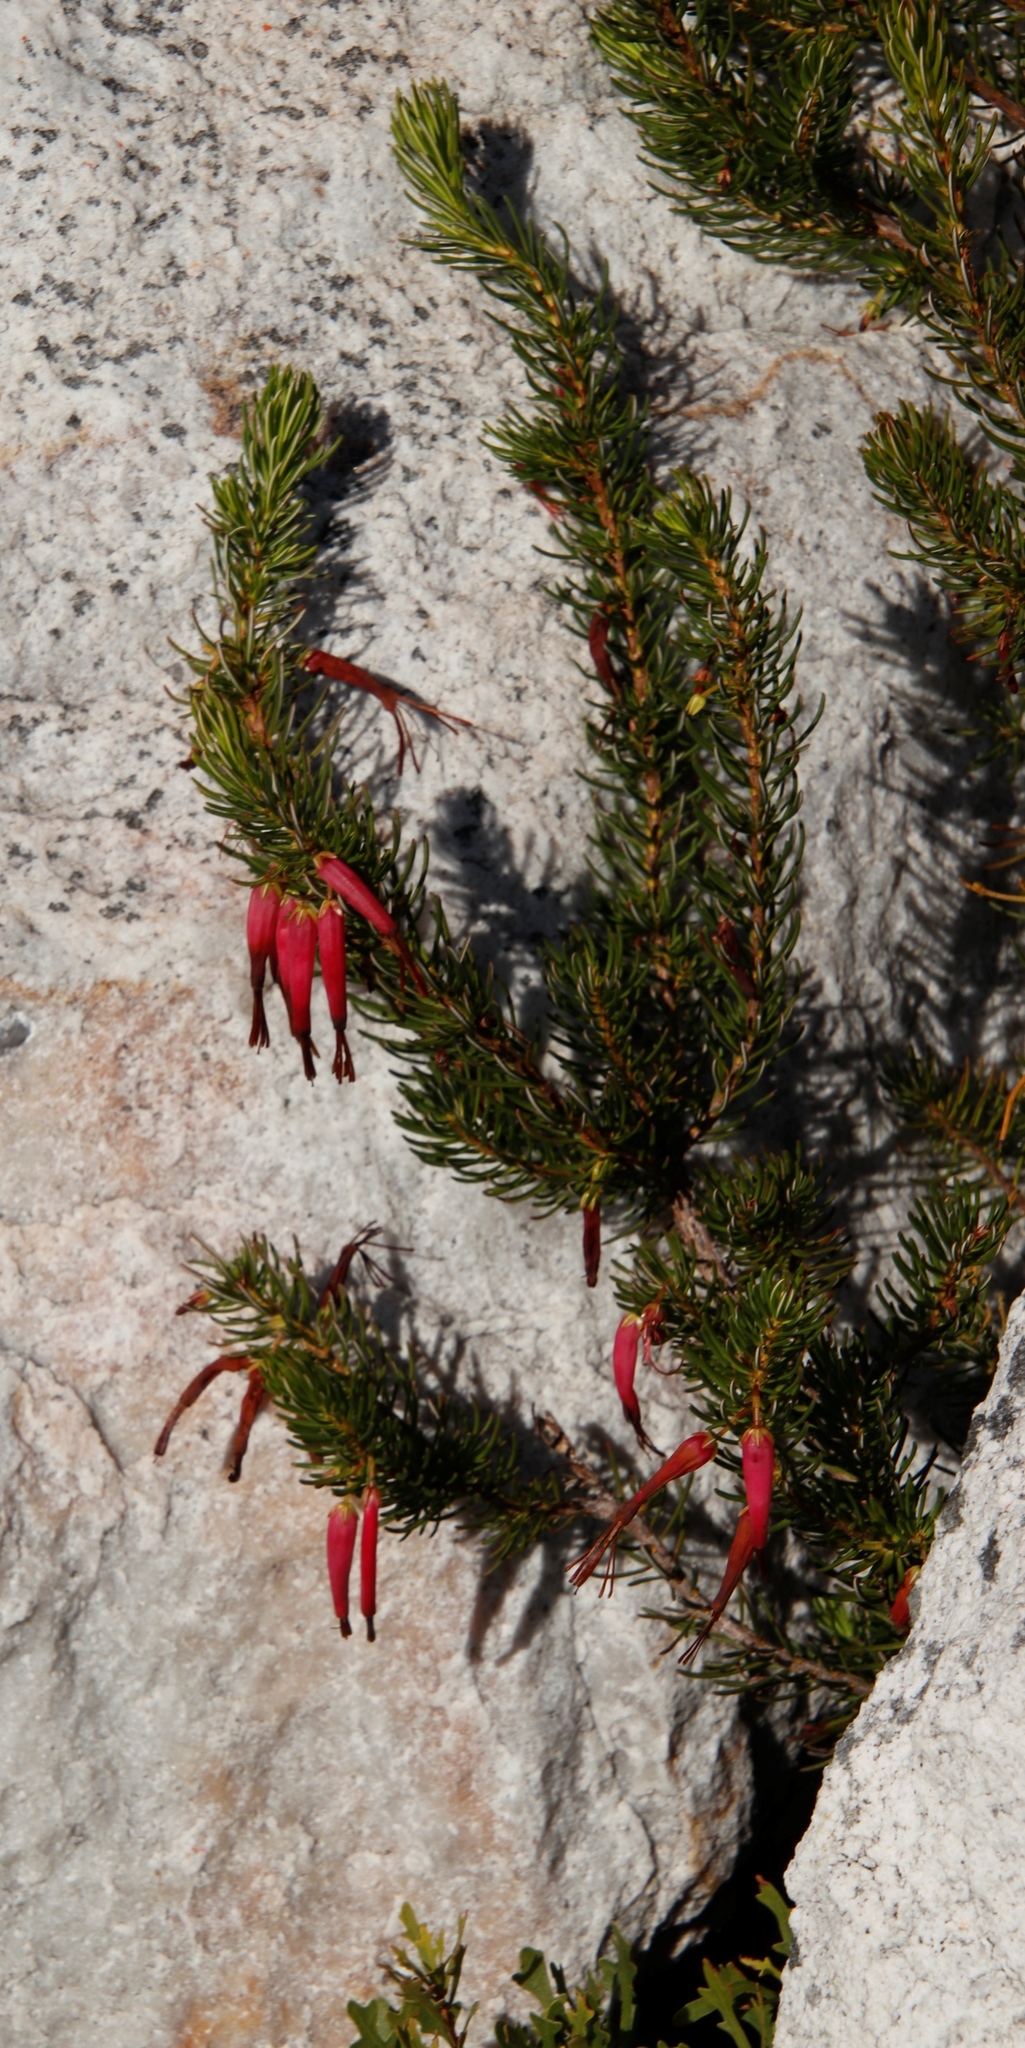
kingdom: Plantae
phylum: Tracheophyta
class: Magnoliopsida
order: Ericales
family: Ericaceae
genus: Erica
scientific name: Erica plukenetii
